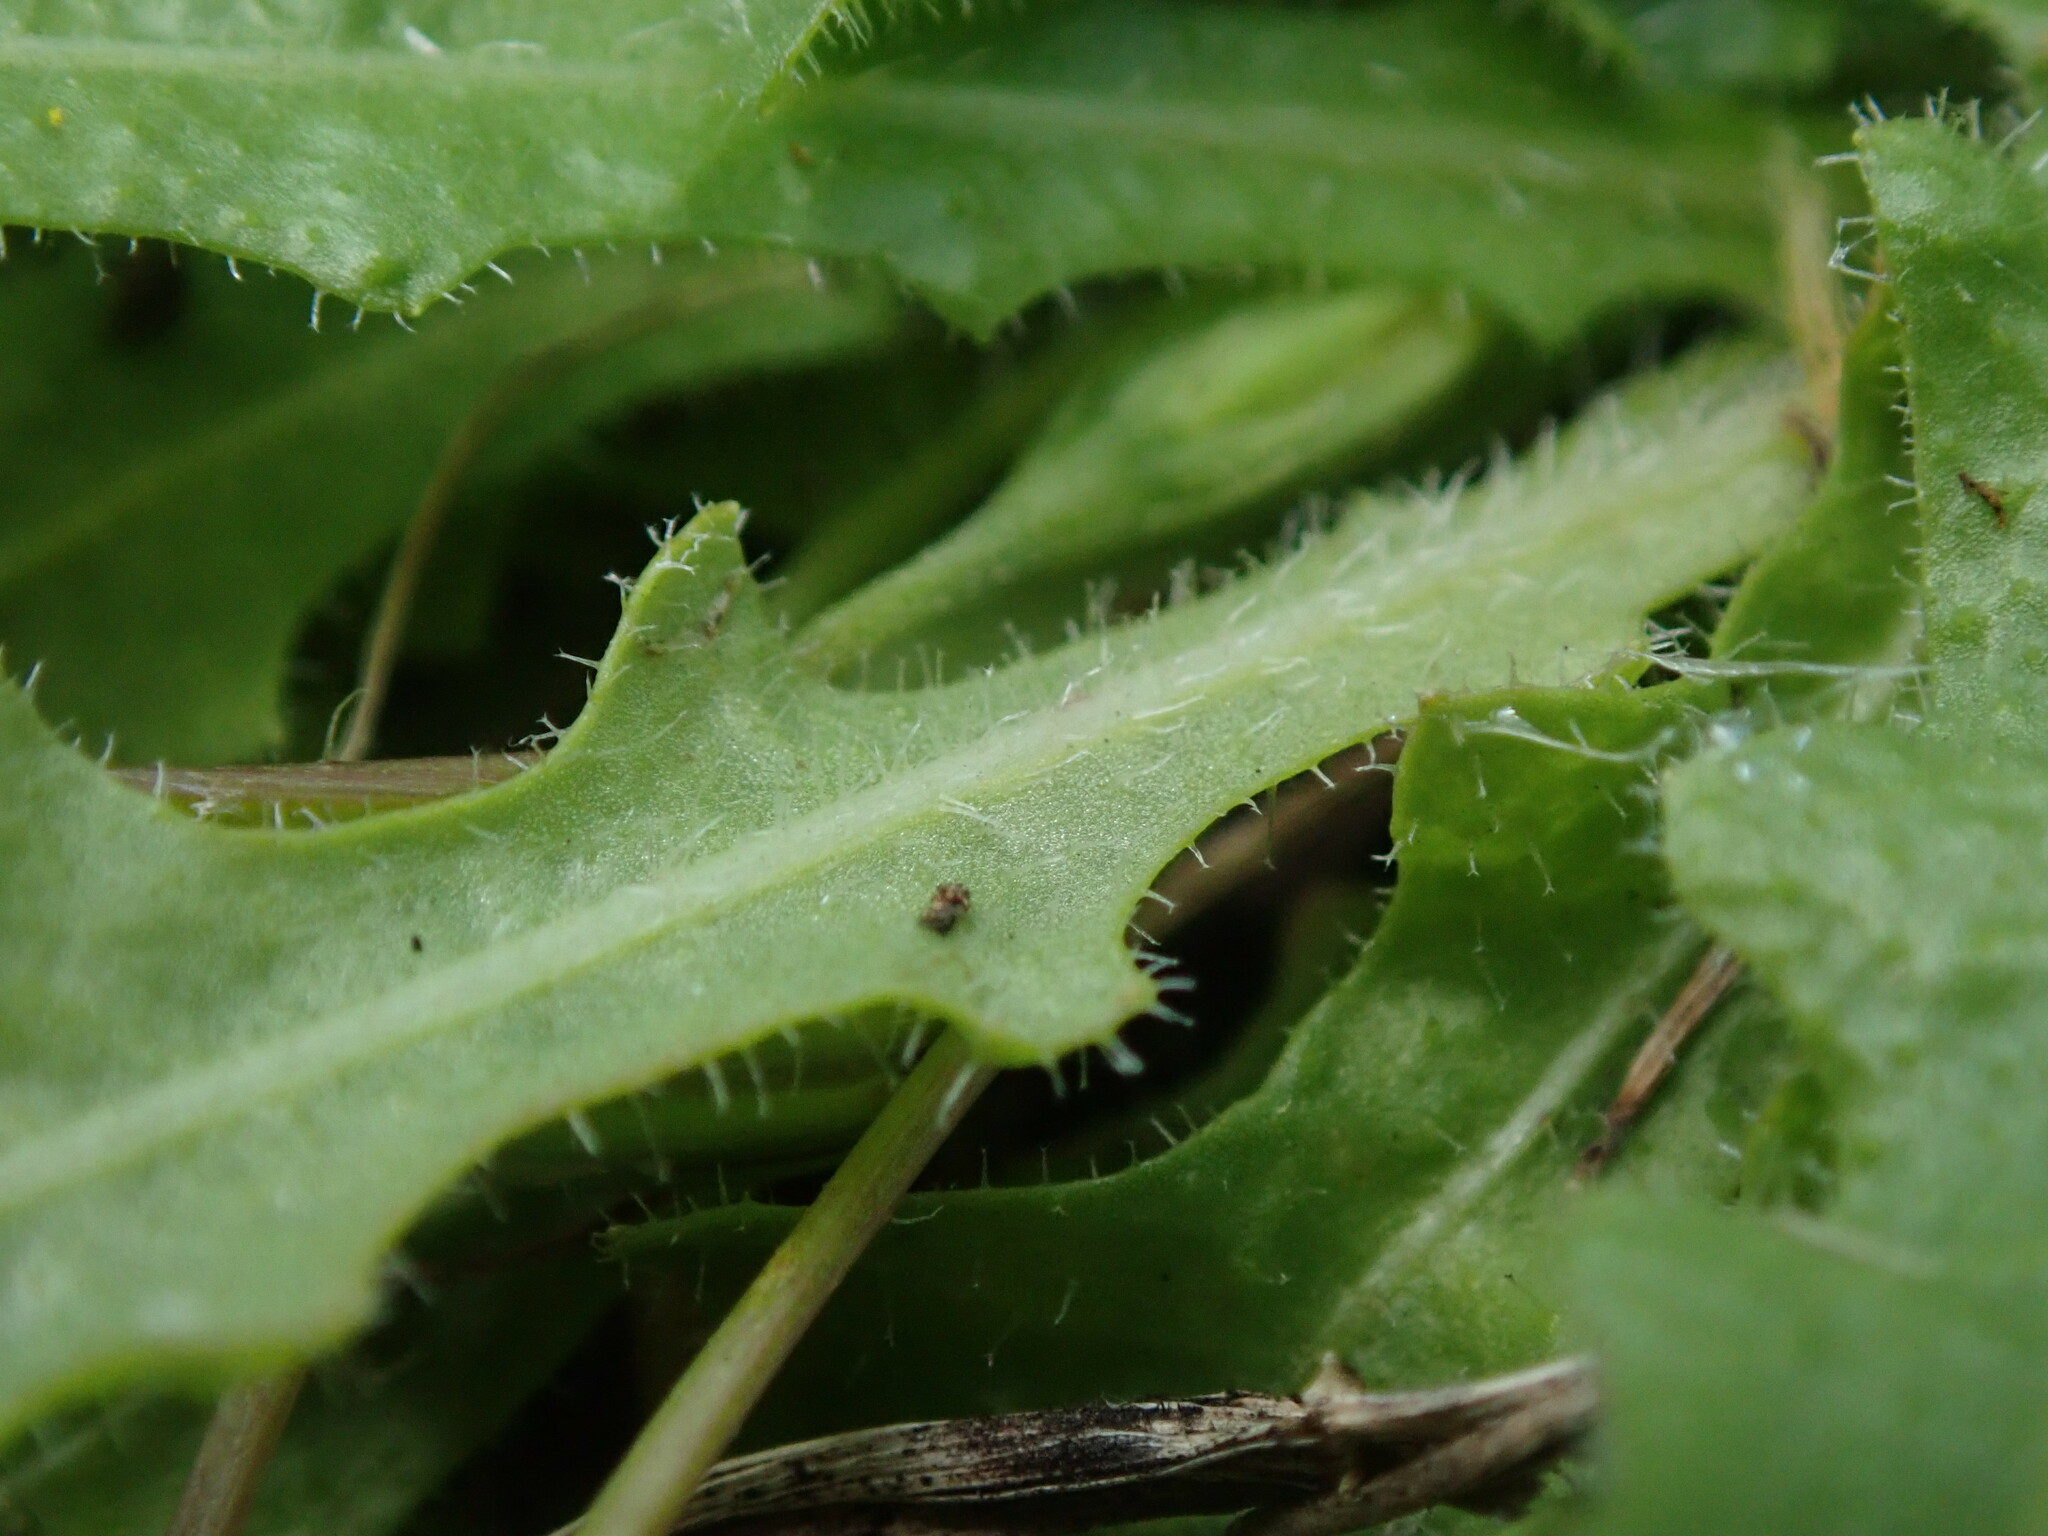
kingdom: Plantae
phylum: Tracheophyta
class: Magnoliopsida
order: Asterales
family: Asteraceae
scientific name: Asteraceae
